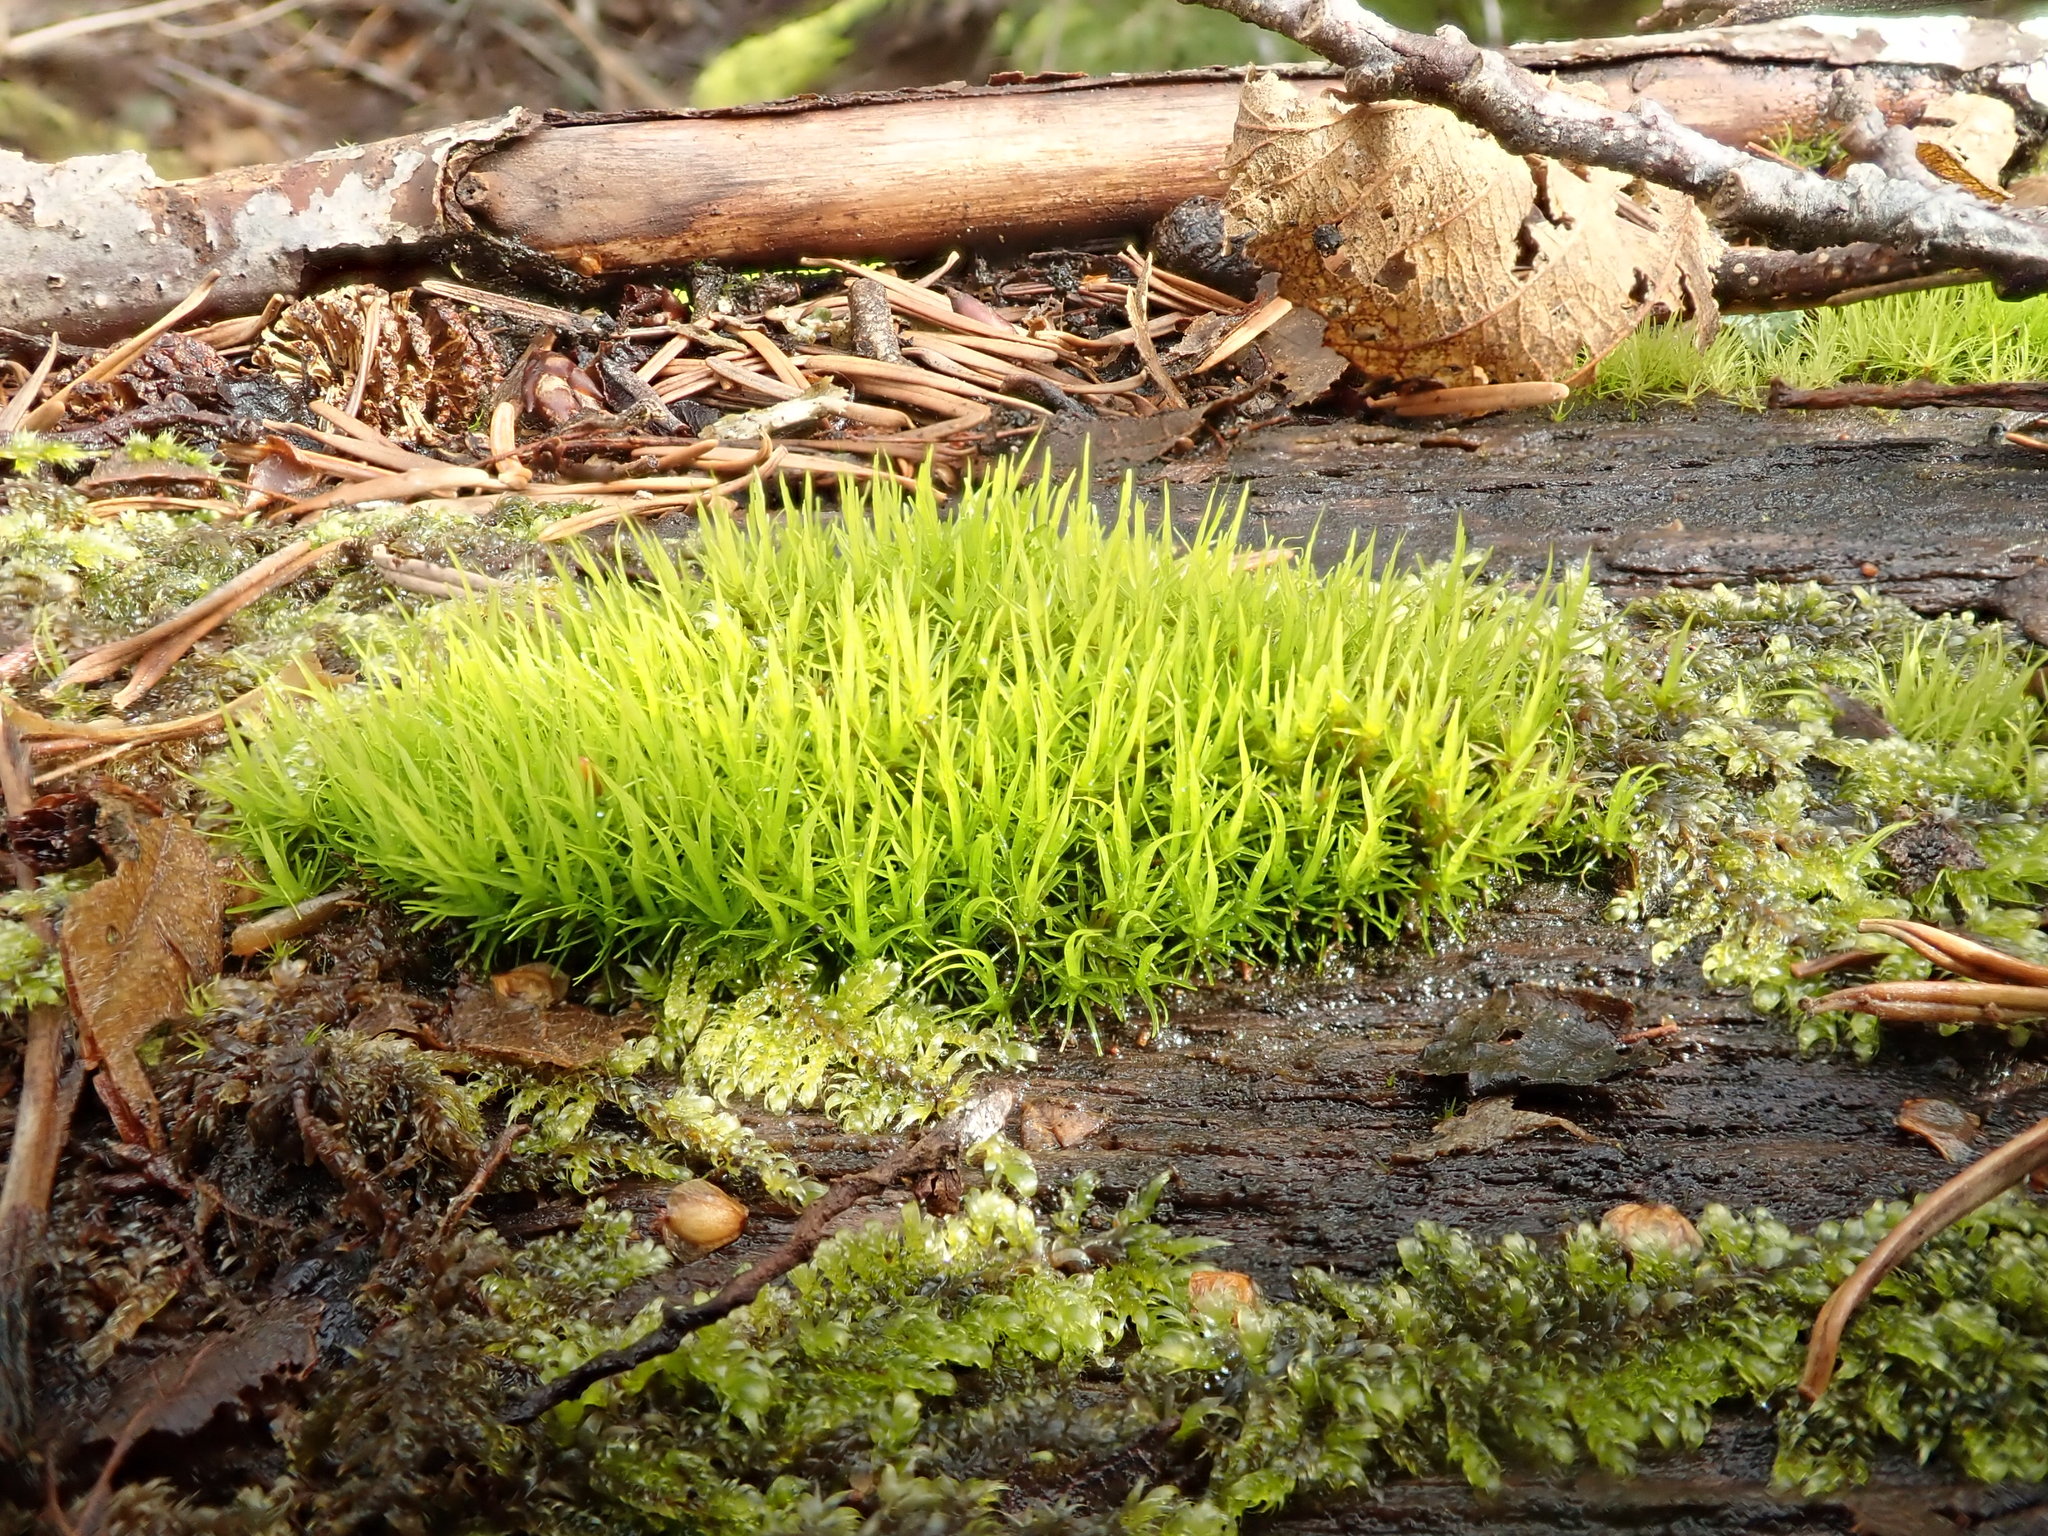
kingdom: Plantae
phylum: Bryophyta
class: Bryopsida
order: Dicranales
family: Dicranaceae
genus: Orthodicranum
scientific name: Orthodicranum tauricum
